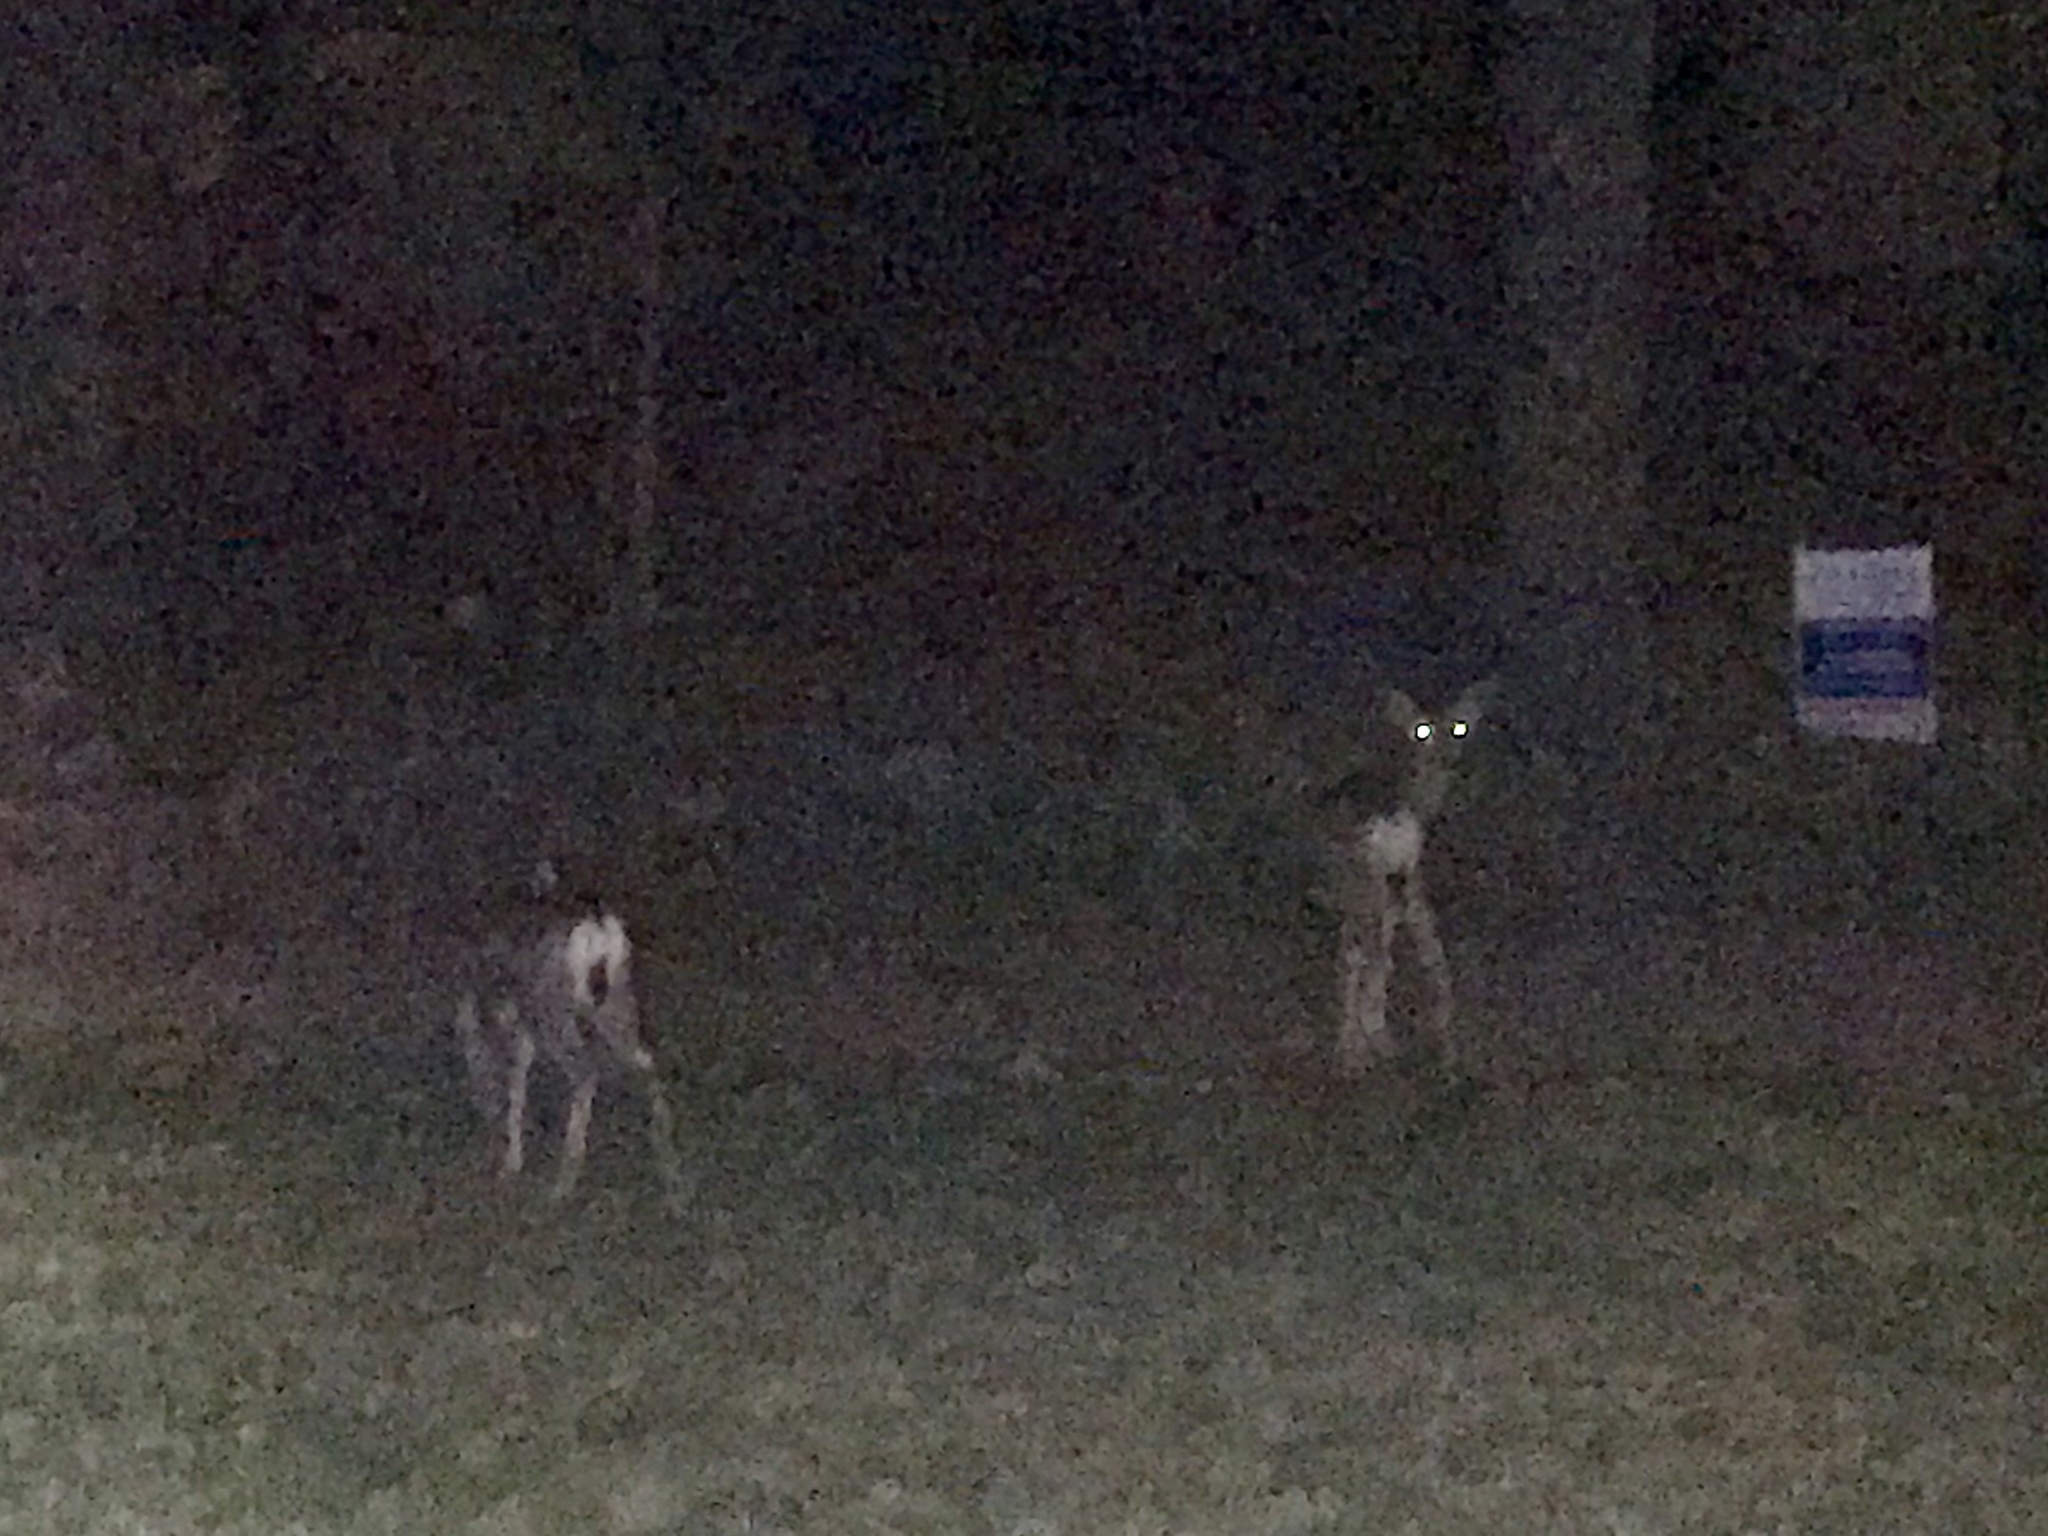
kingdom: Animalia
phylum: Chordata
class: Mammalia
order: Artiodactyla
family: Cervidae
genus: Odocoileus
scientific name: Odocoileus hemionus
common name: Mule deer
